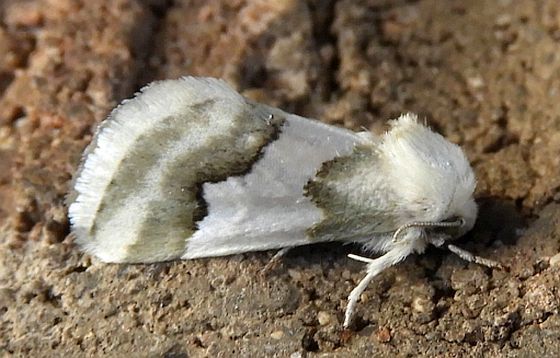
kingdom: Animalia
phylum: Arthropoda
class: Insecta
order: Lepidoptera
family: Noctuidae
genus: Schinia
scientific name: Schinia hulstia
